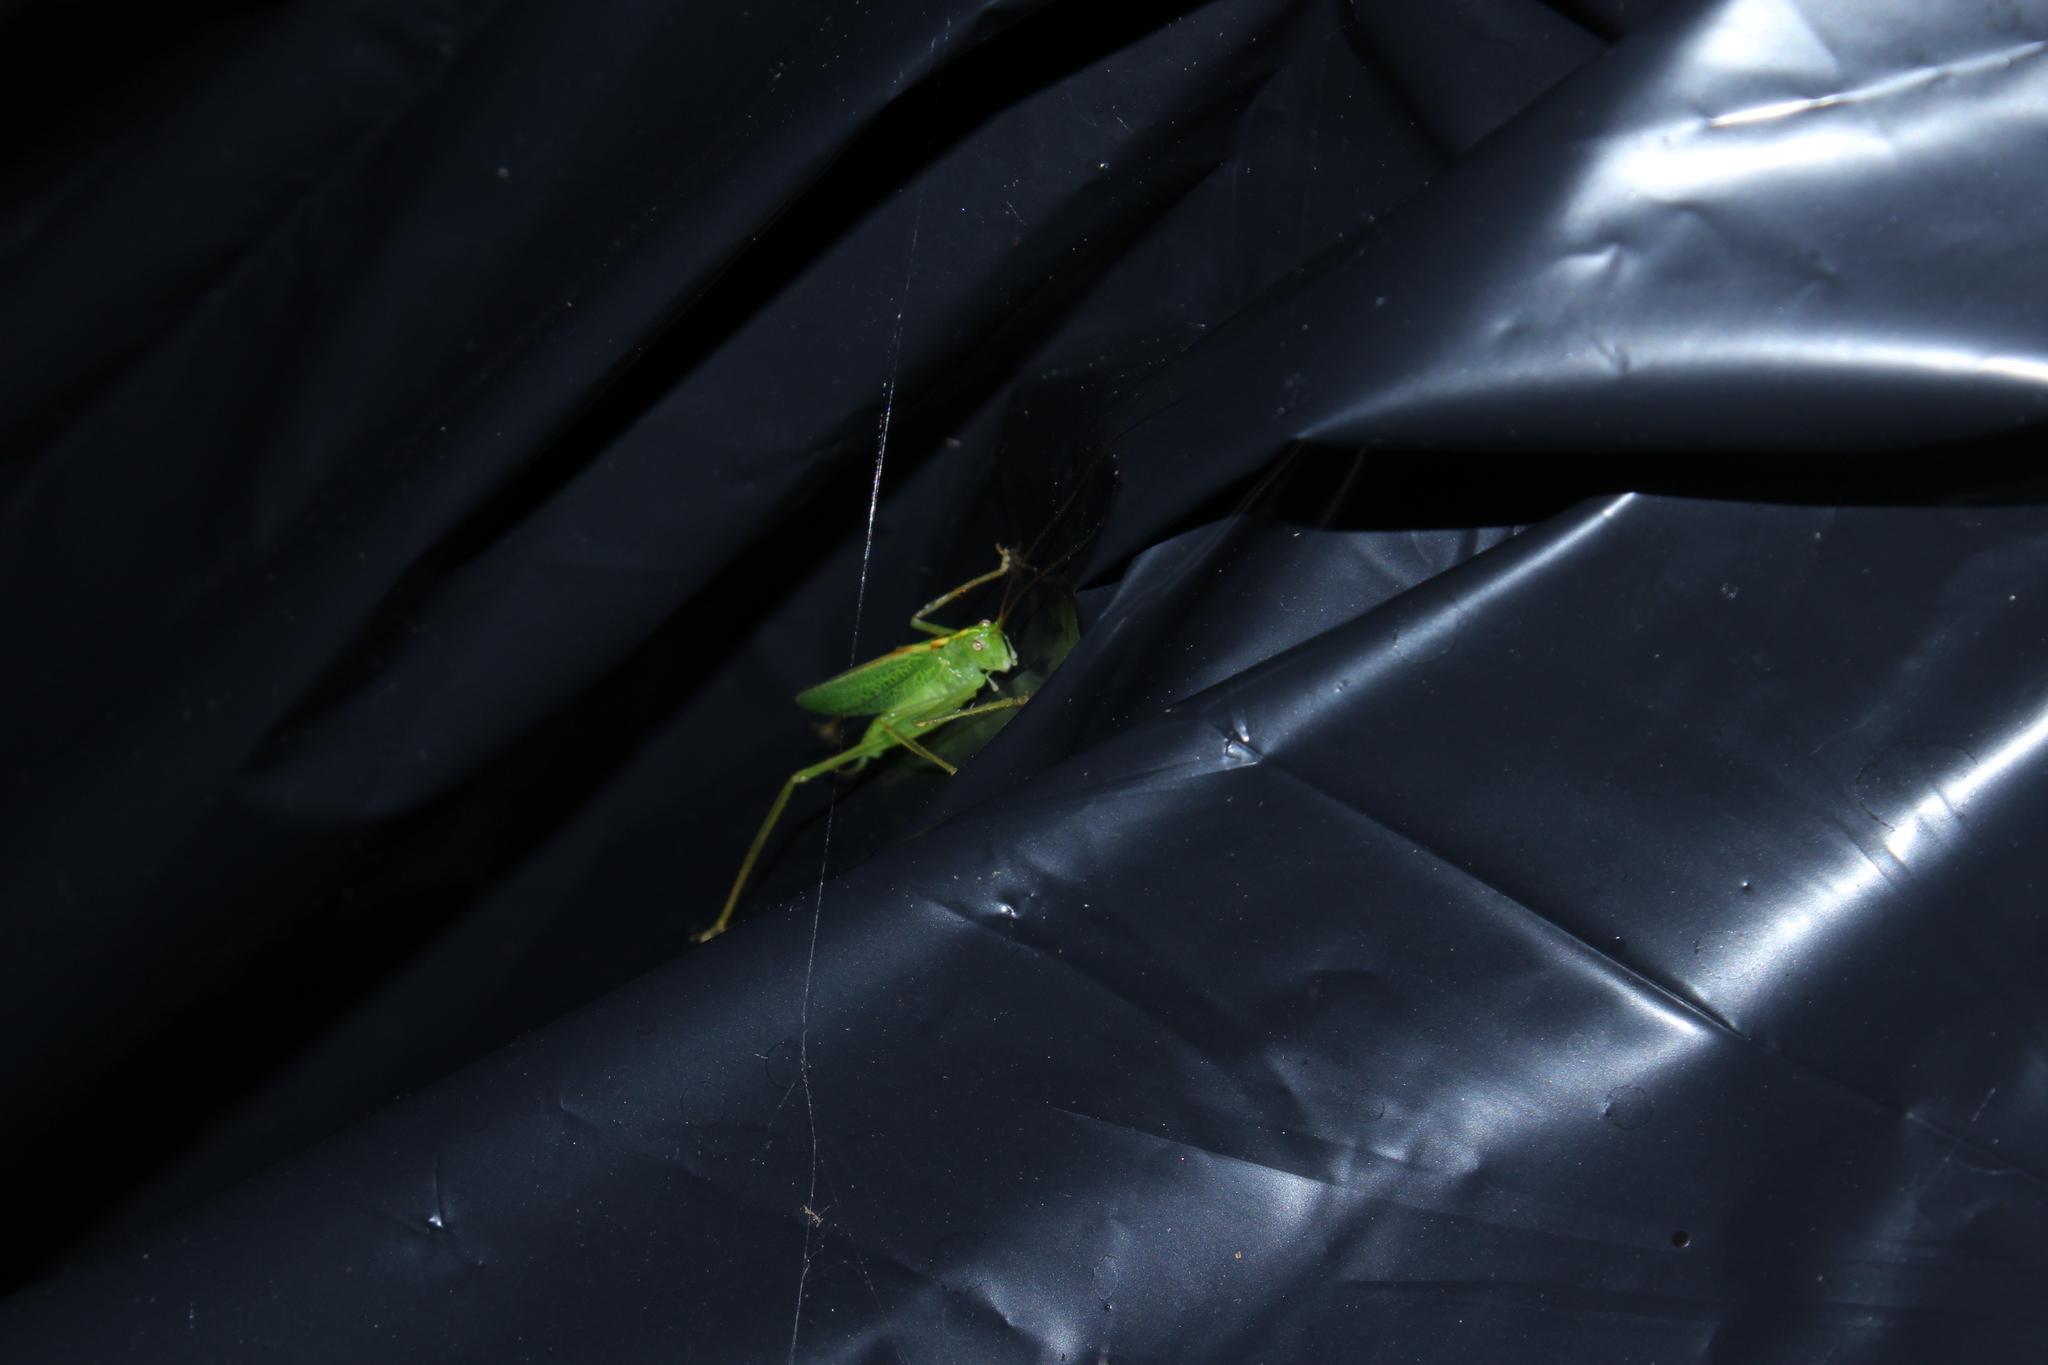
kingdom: Animalia
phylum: Arthropoda
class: Insecta
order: Orthoptera
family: Tettigoniidae
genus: Meconema
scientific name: Meconema thalassinum
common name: Oak bush-cricket
